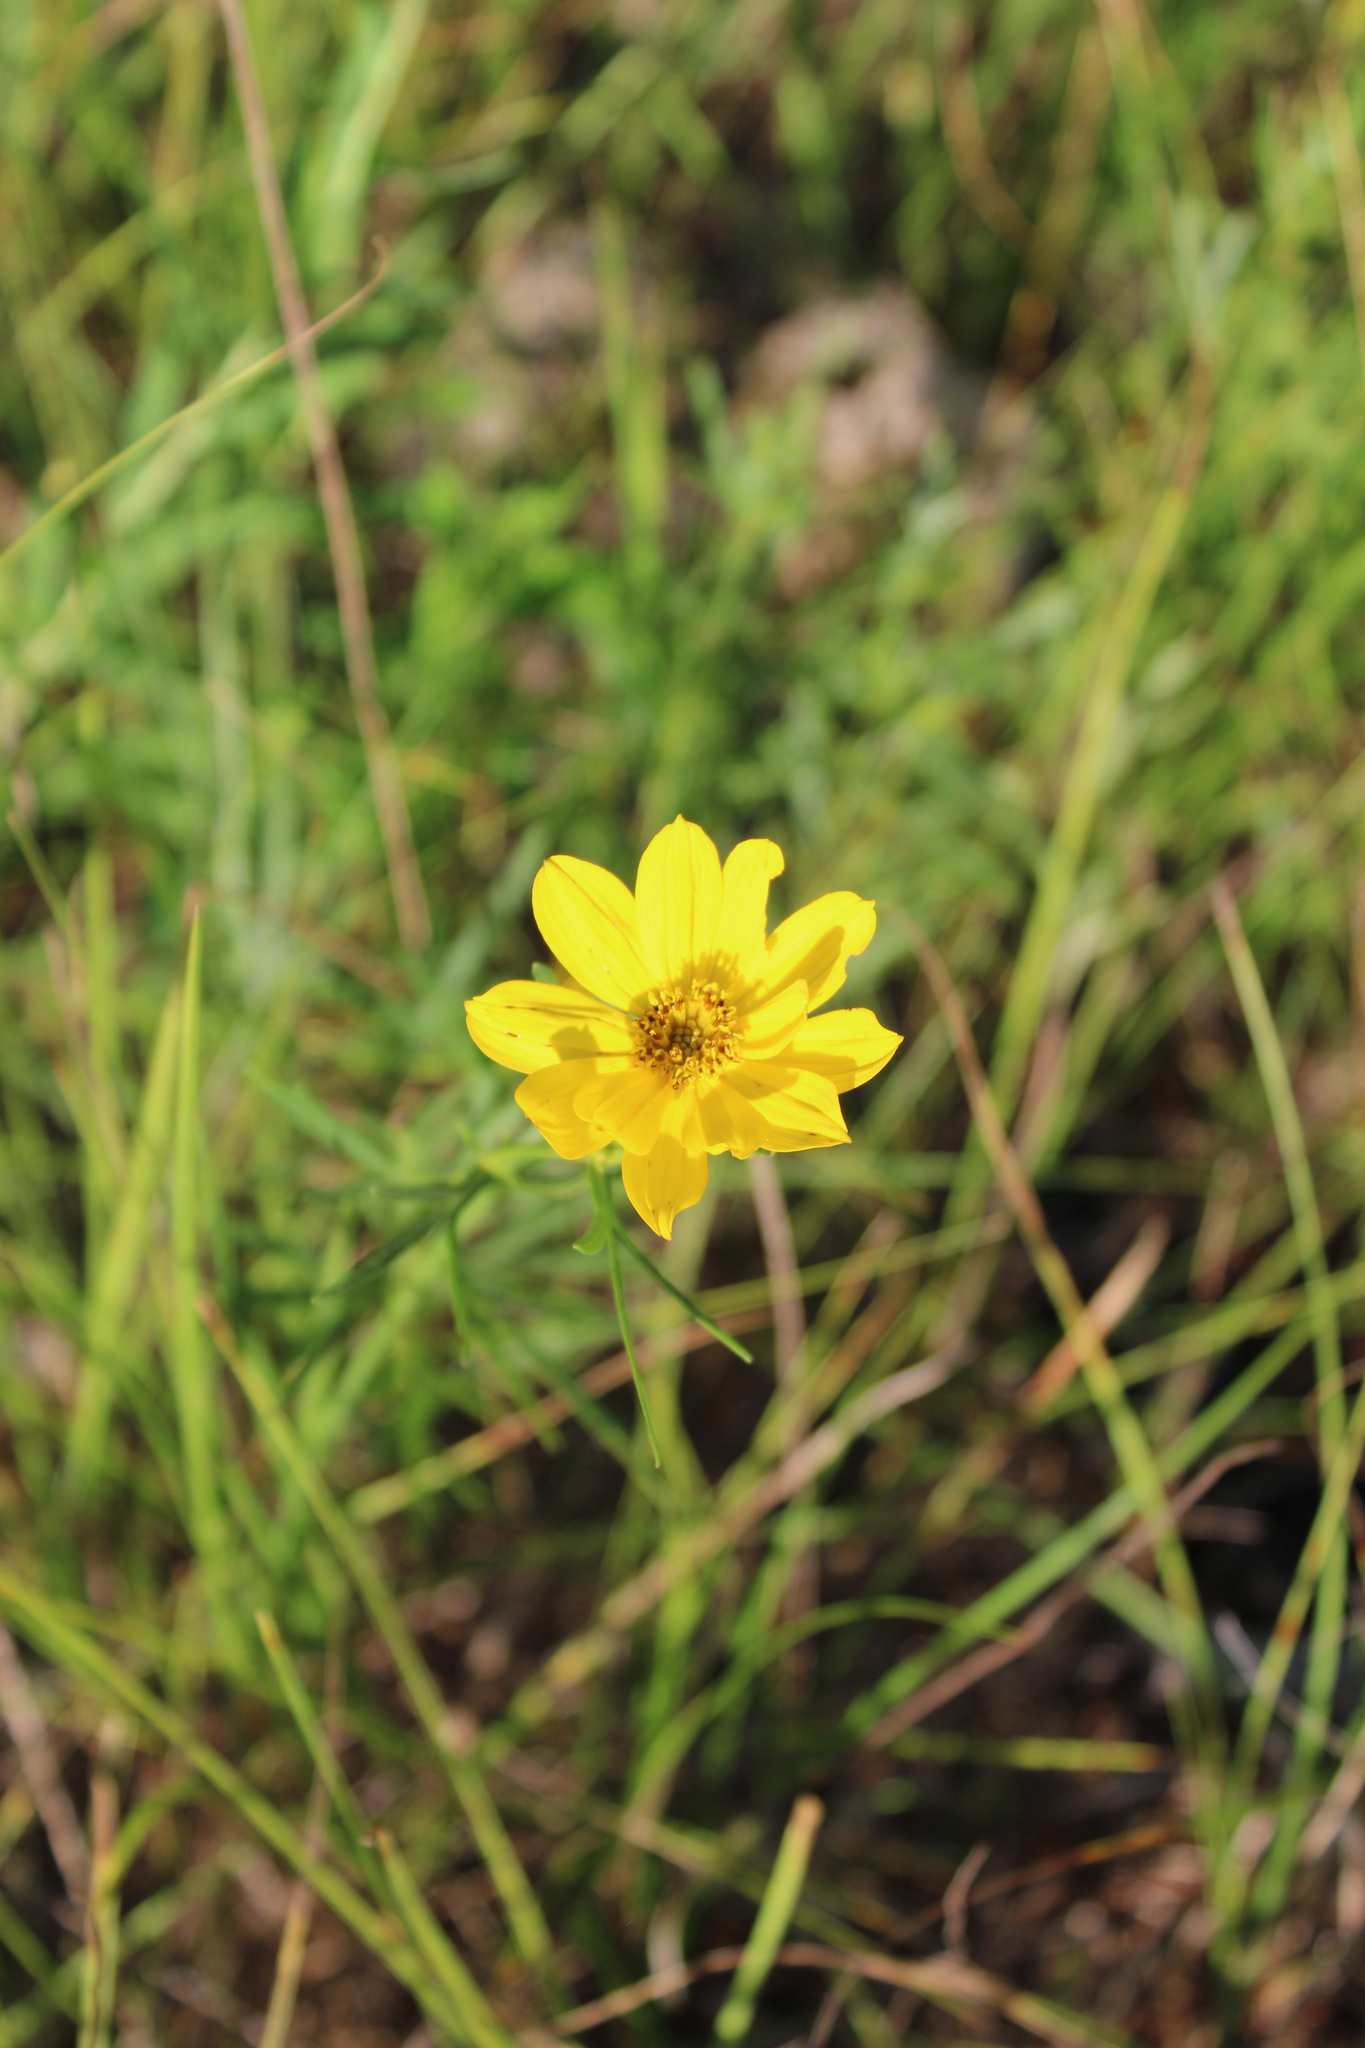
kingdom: Plantae
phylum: Tracheophyta
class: Magnoliopsida
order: Asterales
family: Asteraceae
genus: Coreopsis
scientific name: Coreopsis palmata
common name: Prairie coreopsis
